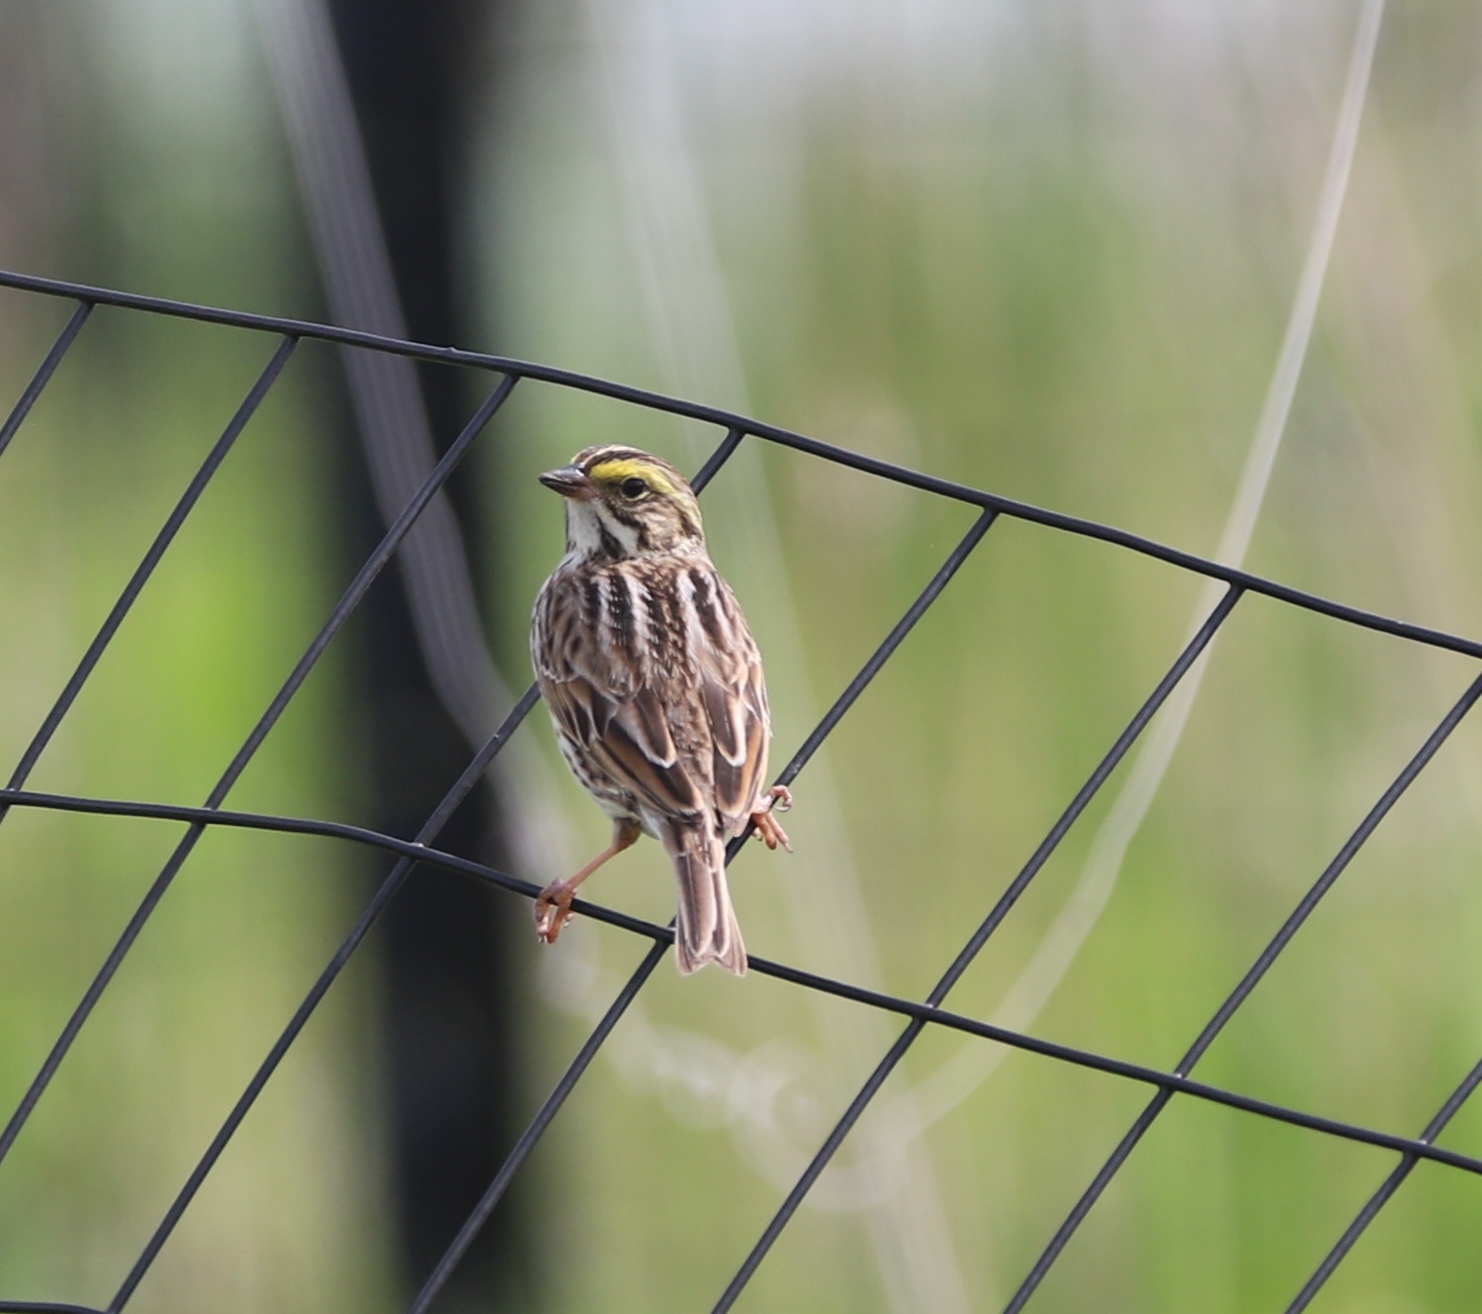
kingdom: Animalia
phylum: Chordata
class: Aves
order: Passeriformes
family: Passerellidae
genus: Passerculus
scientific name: Passerculus sandwichensis
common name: Savannah sparrow
